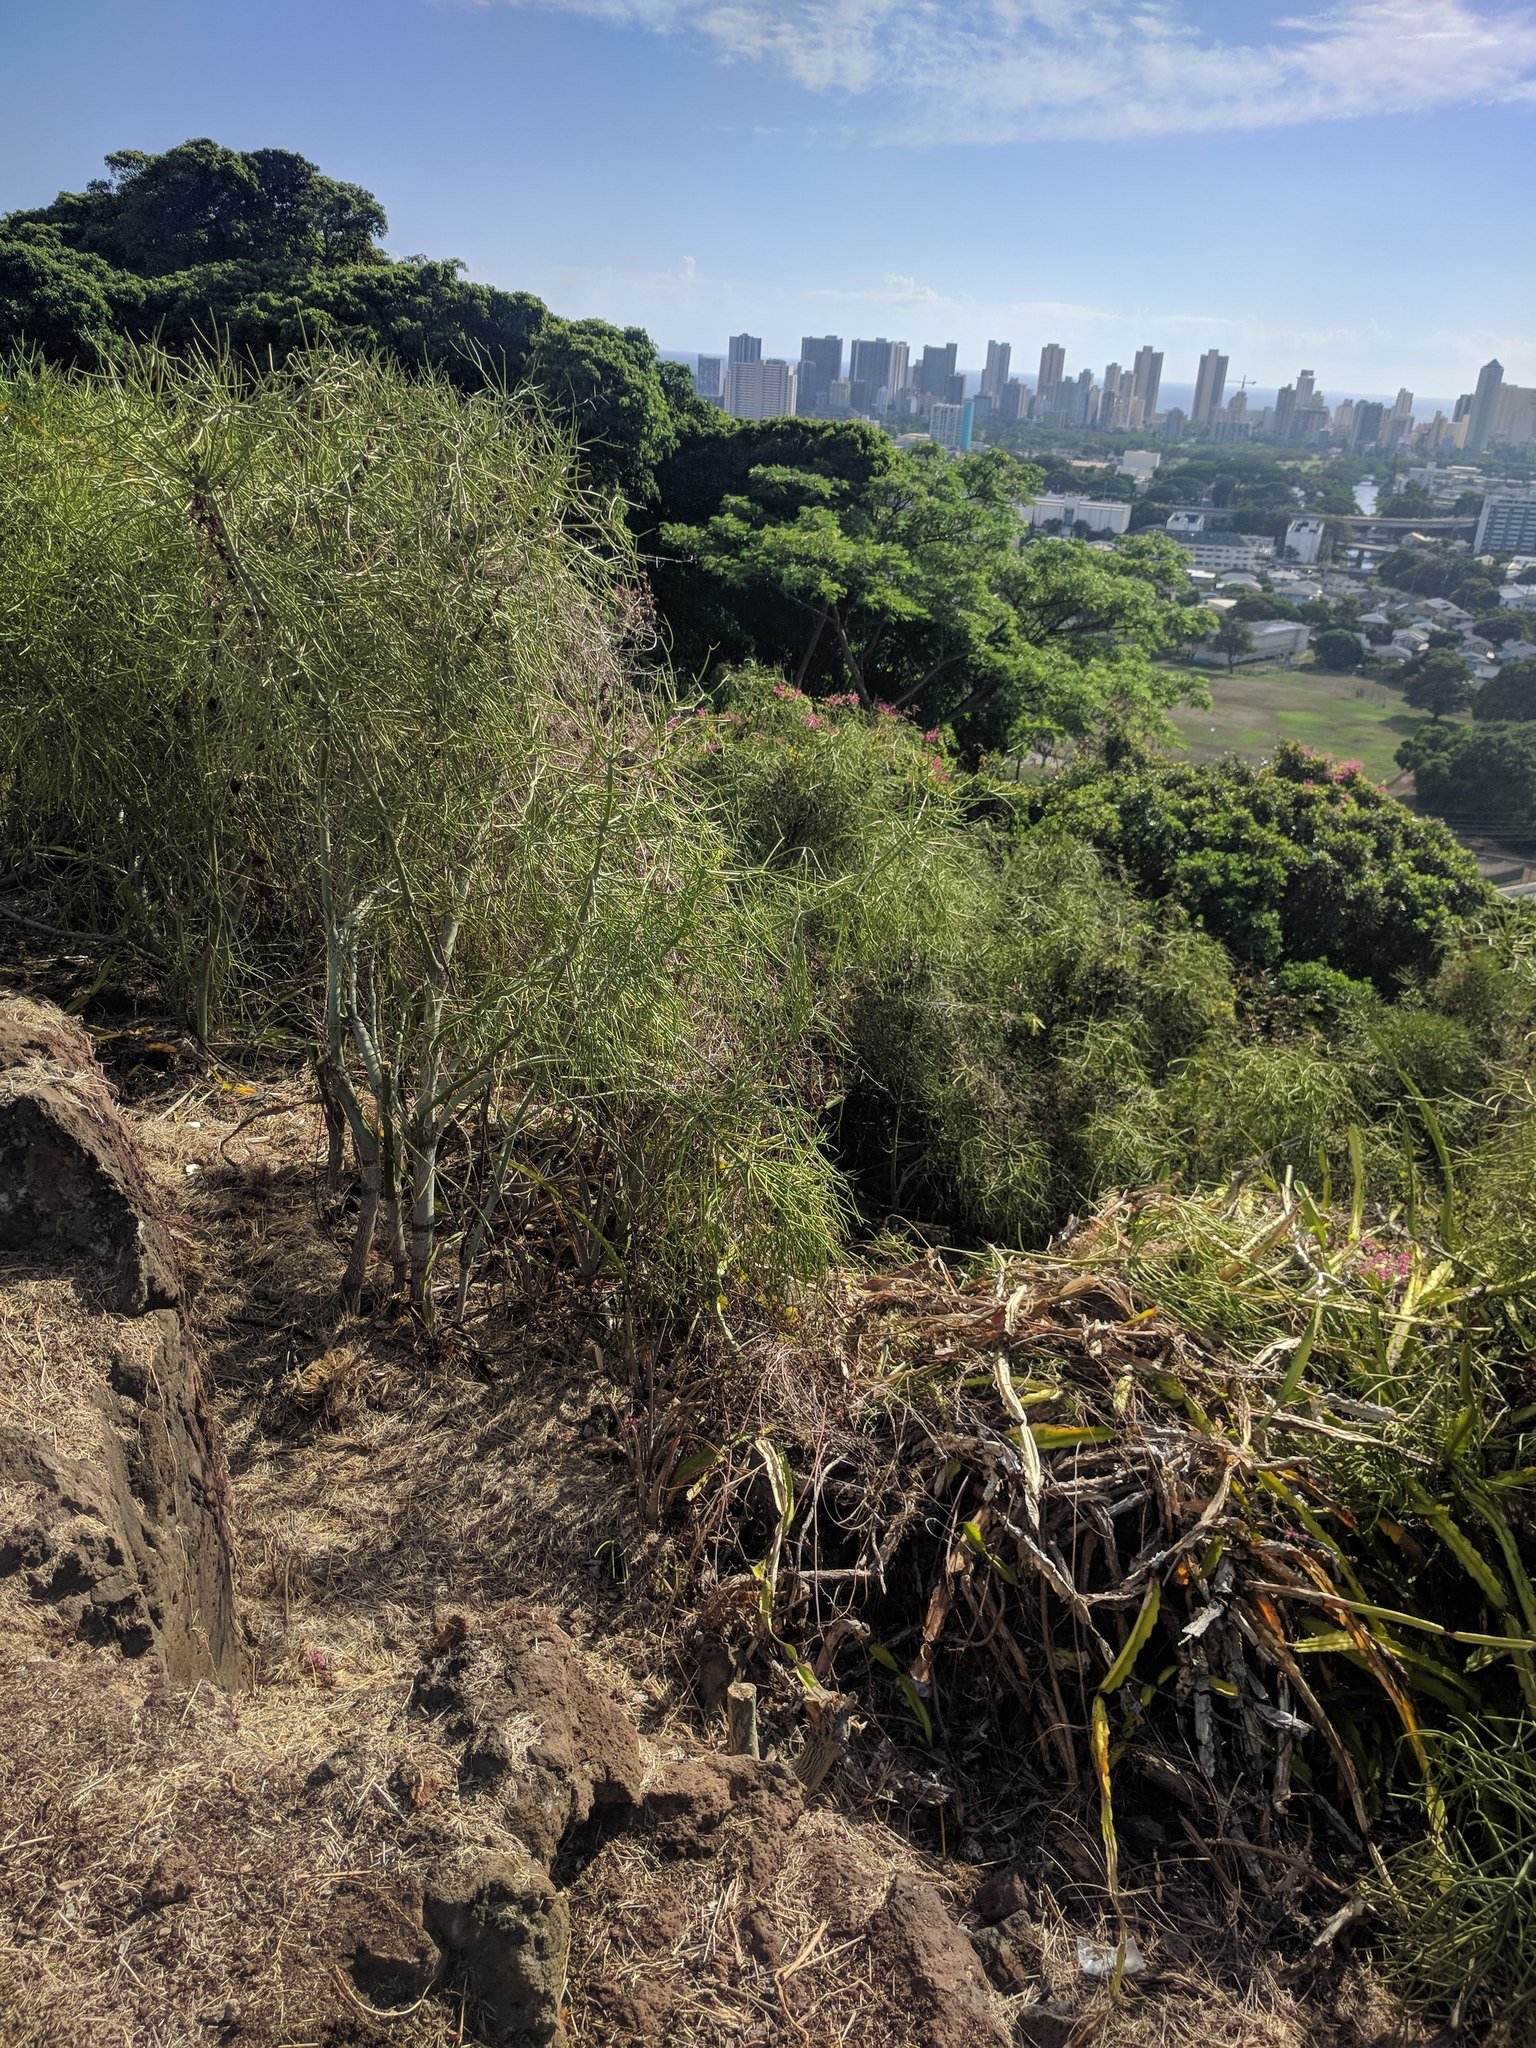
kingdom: Plantae
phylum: Tracheophyta
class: Magnoliopsida
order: Malpighiales
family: Euphorbiaceae
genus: Euphorbia
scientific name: Euphorbia tirucalli
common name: Indiantree spurge
